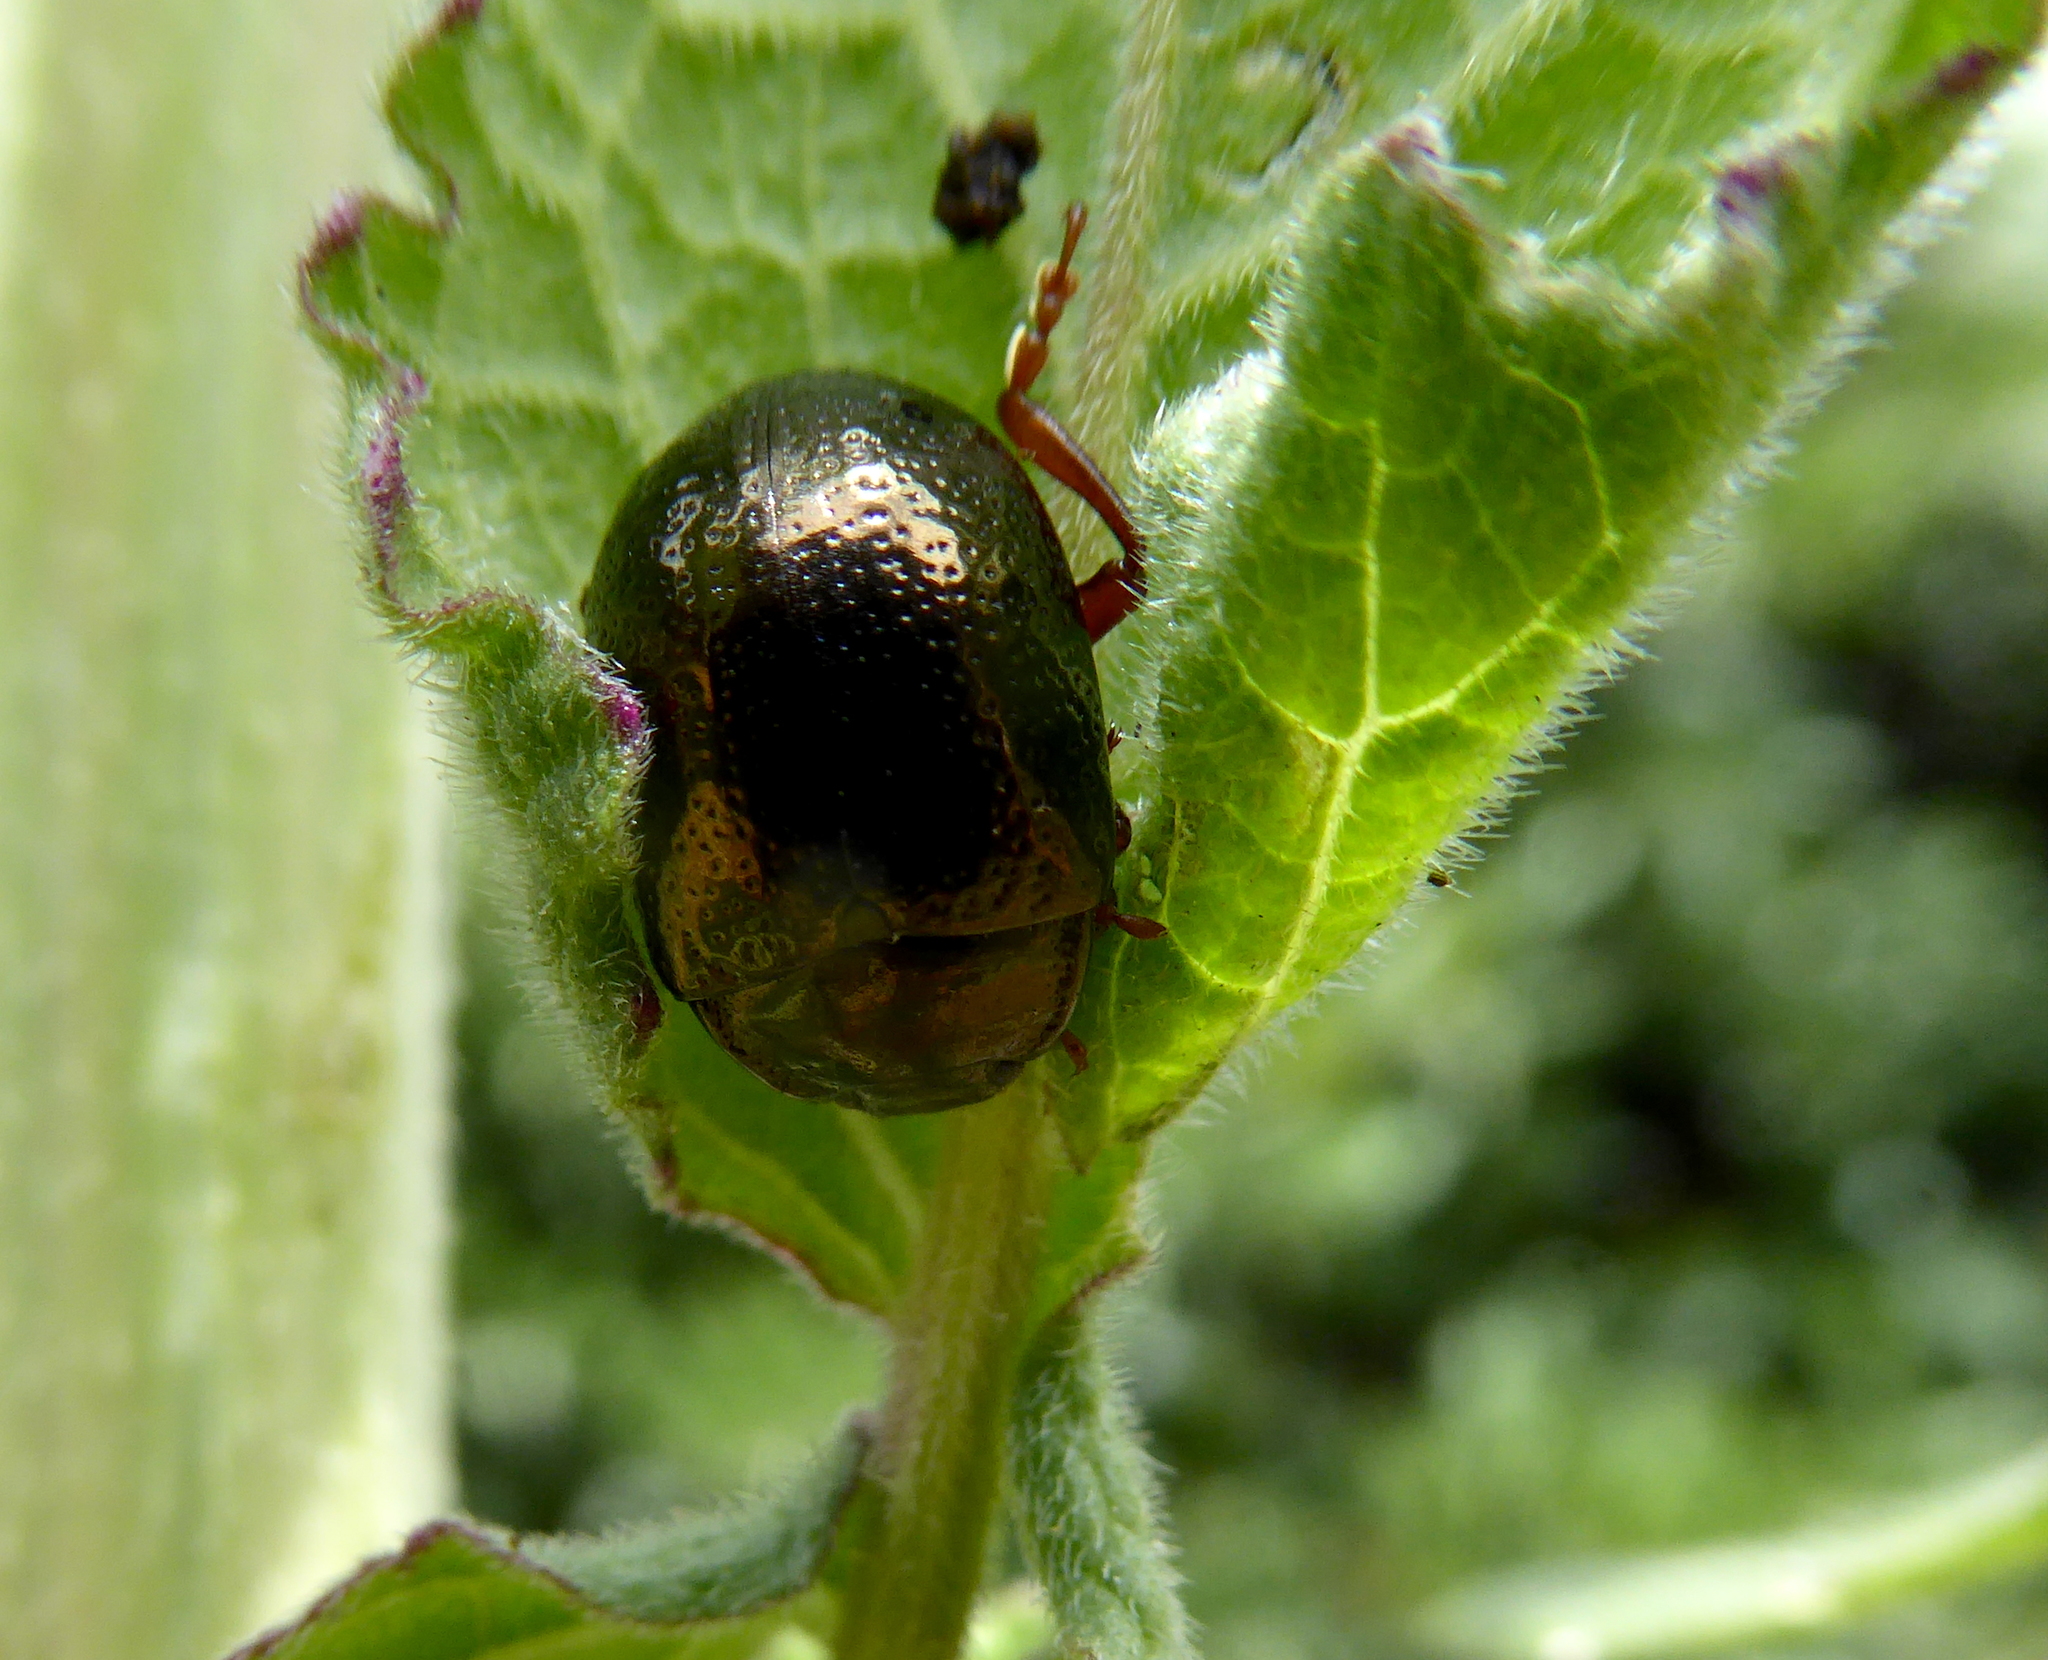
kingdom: Animalia
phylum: Arthropoda
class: Insecta
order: Coleoptera
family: Chrysomelidae
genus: Chrysolina
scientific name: Chrysolina bankii
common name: Leaf beetle
